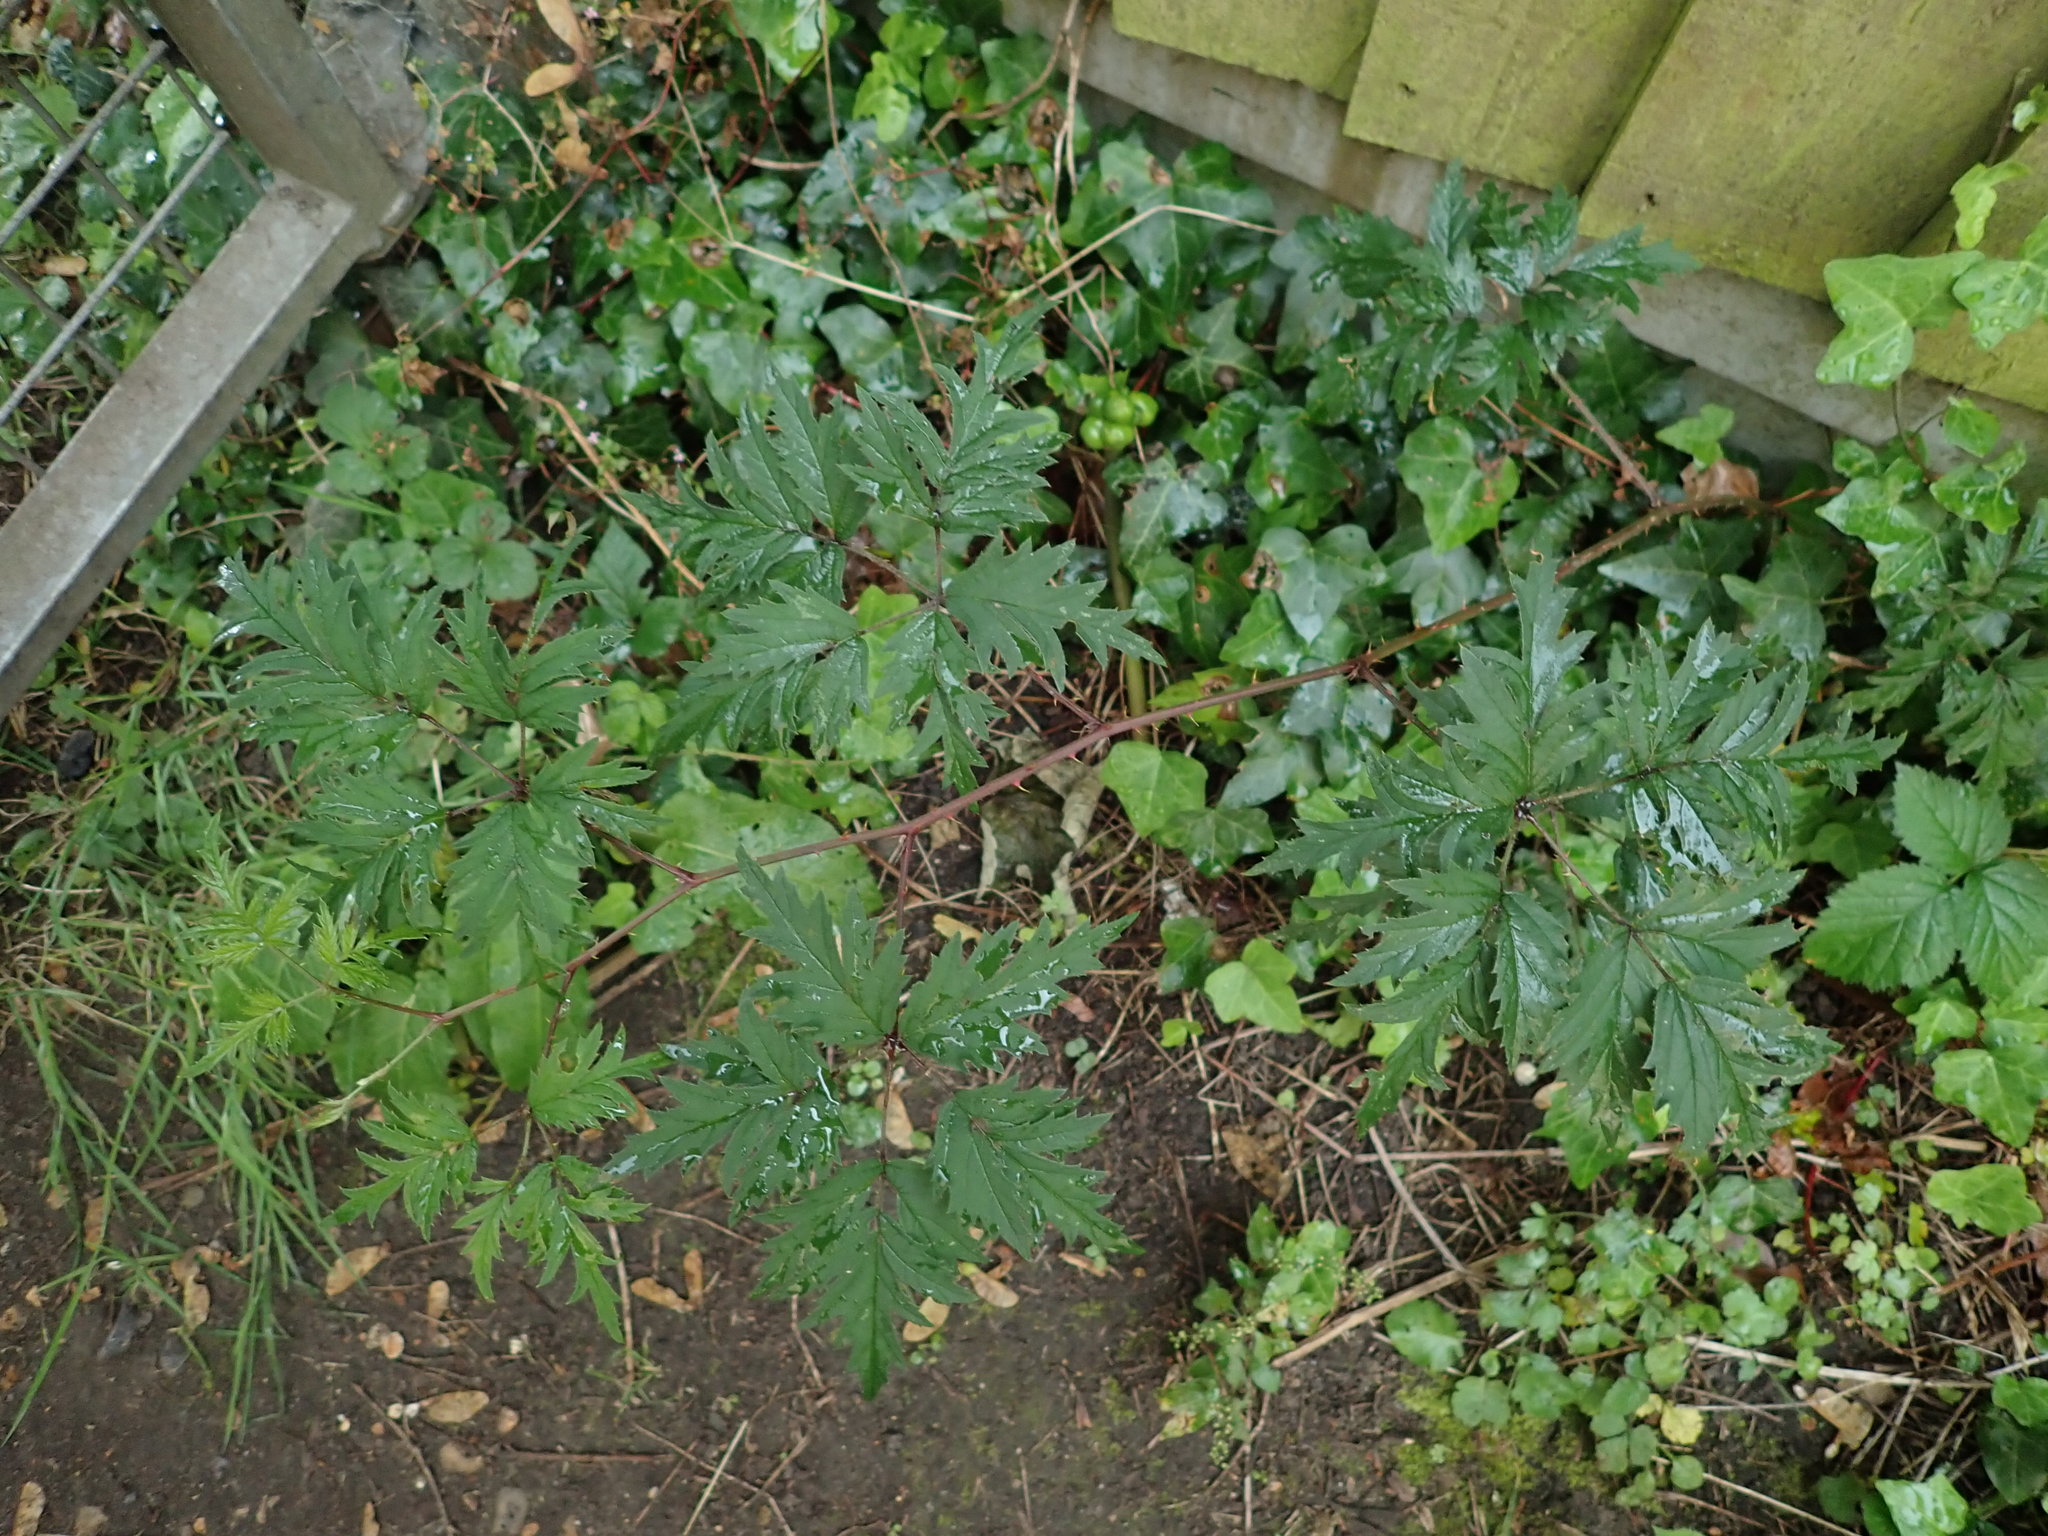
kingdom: Plantae
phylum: Tracheophyta
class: Magnoliopsida
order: Rosales
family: Rosaceae
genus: Rubus
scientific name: Rubus laciniatus
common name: Evergreen blackberry
